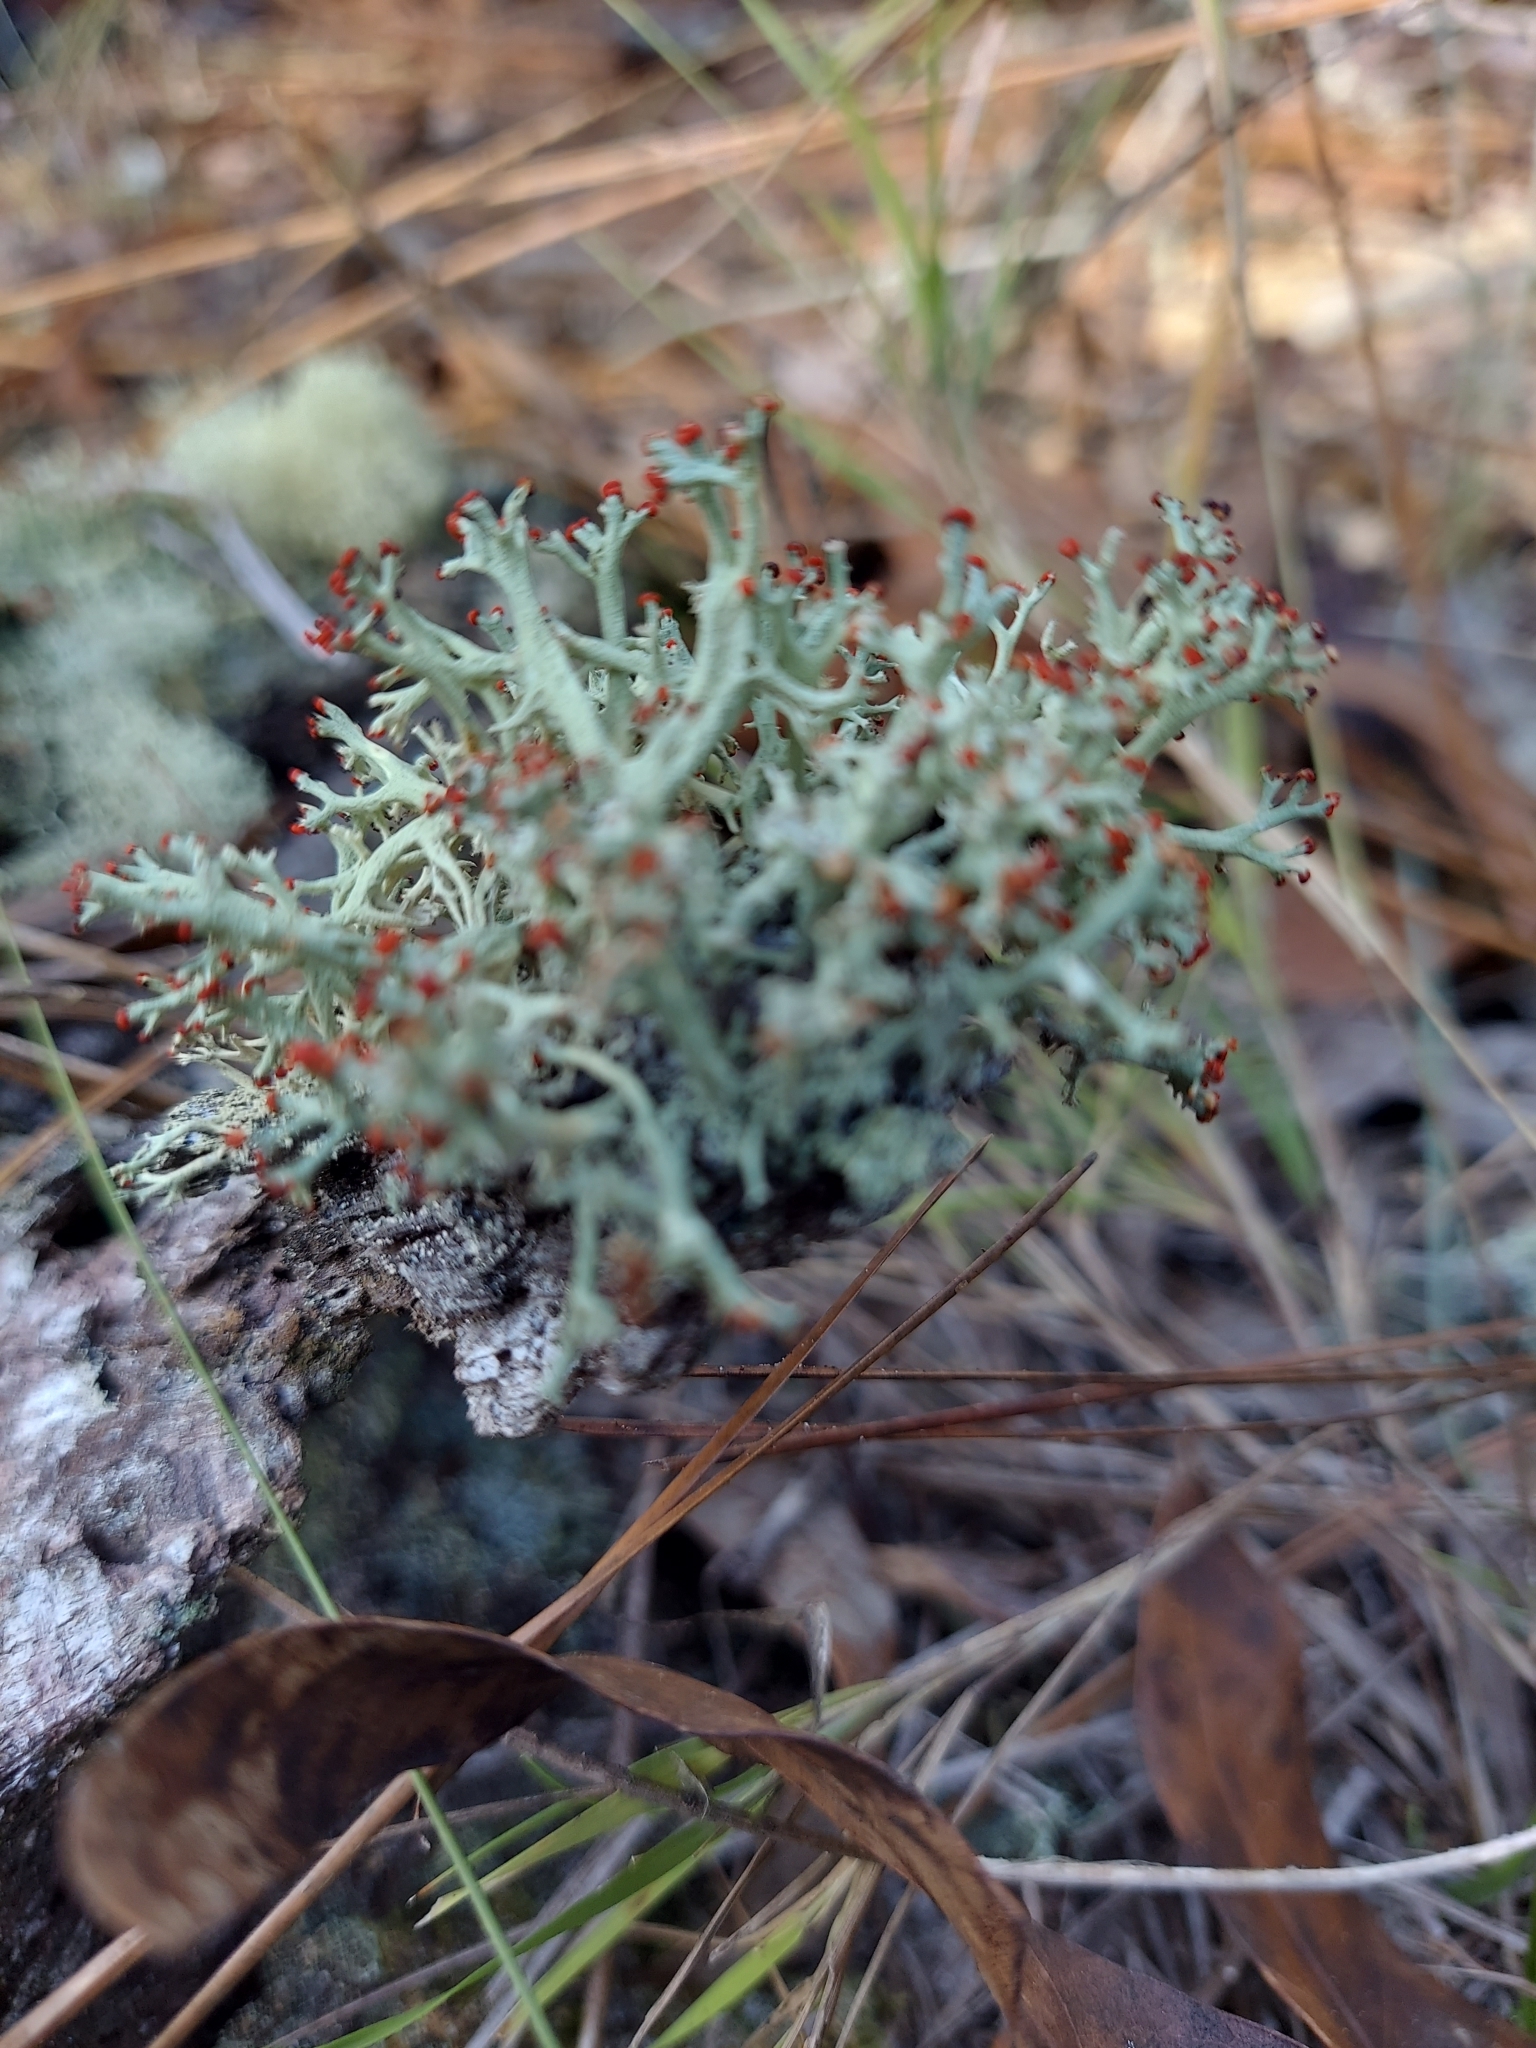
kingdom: Fungi
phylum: Ascomycota
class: Lecanoromycetes
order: Lecanorales
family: Cladoniaceae
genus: Cladonia
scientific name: Cladonia leporina
